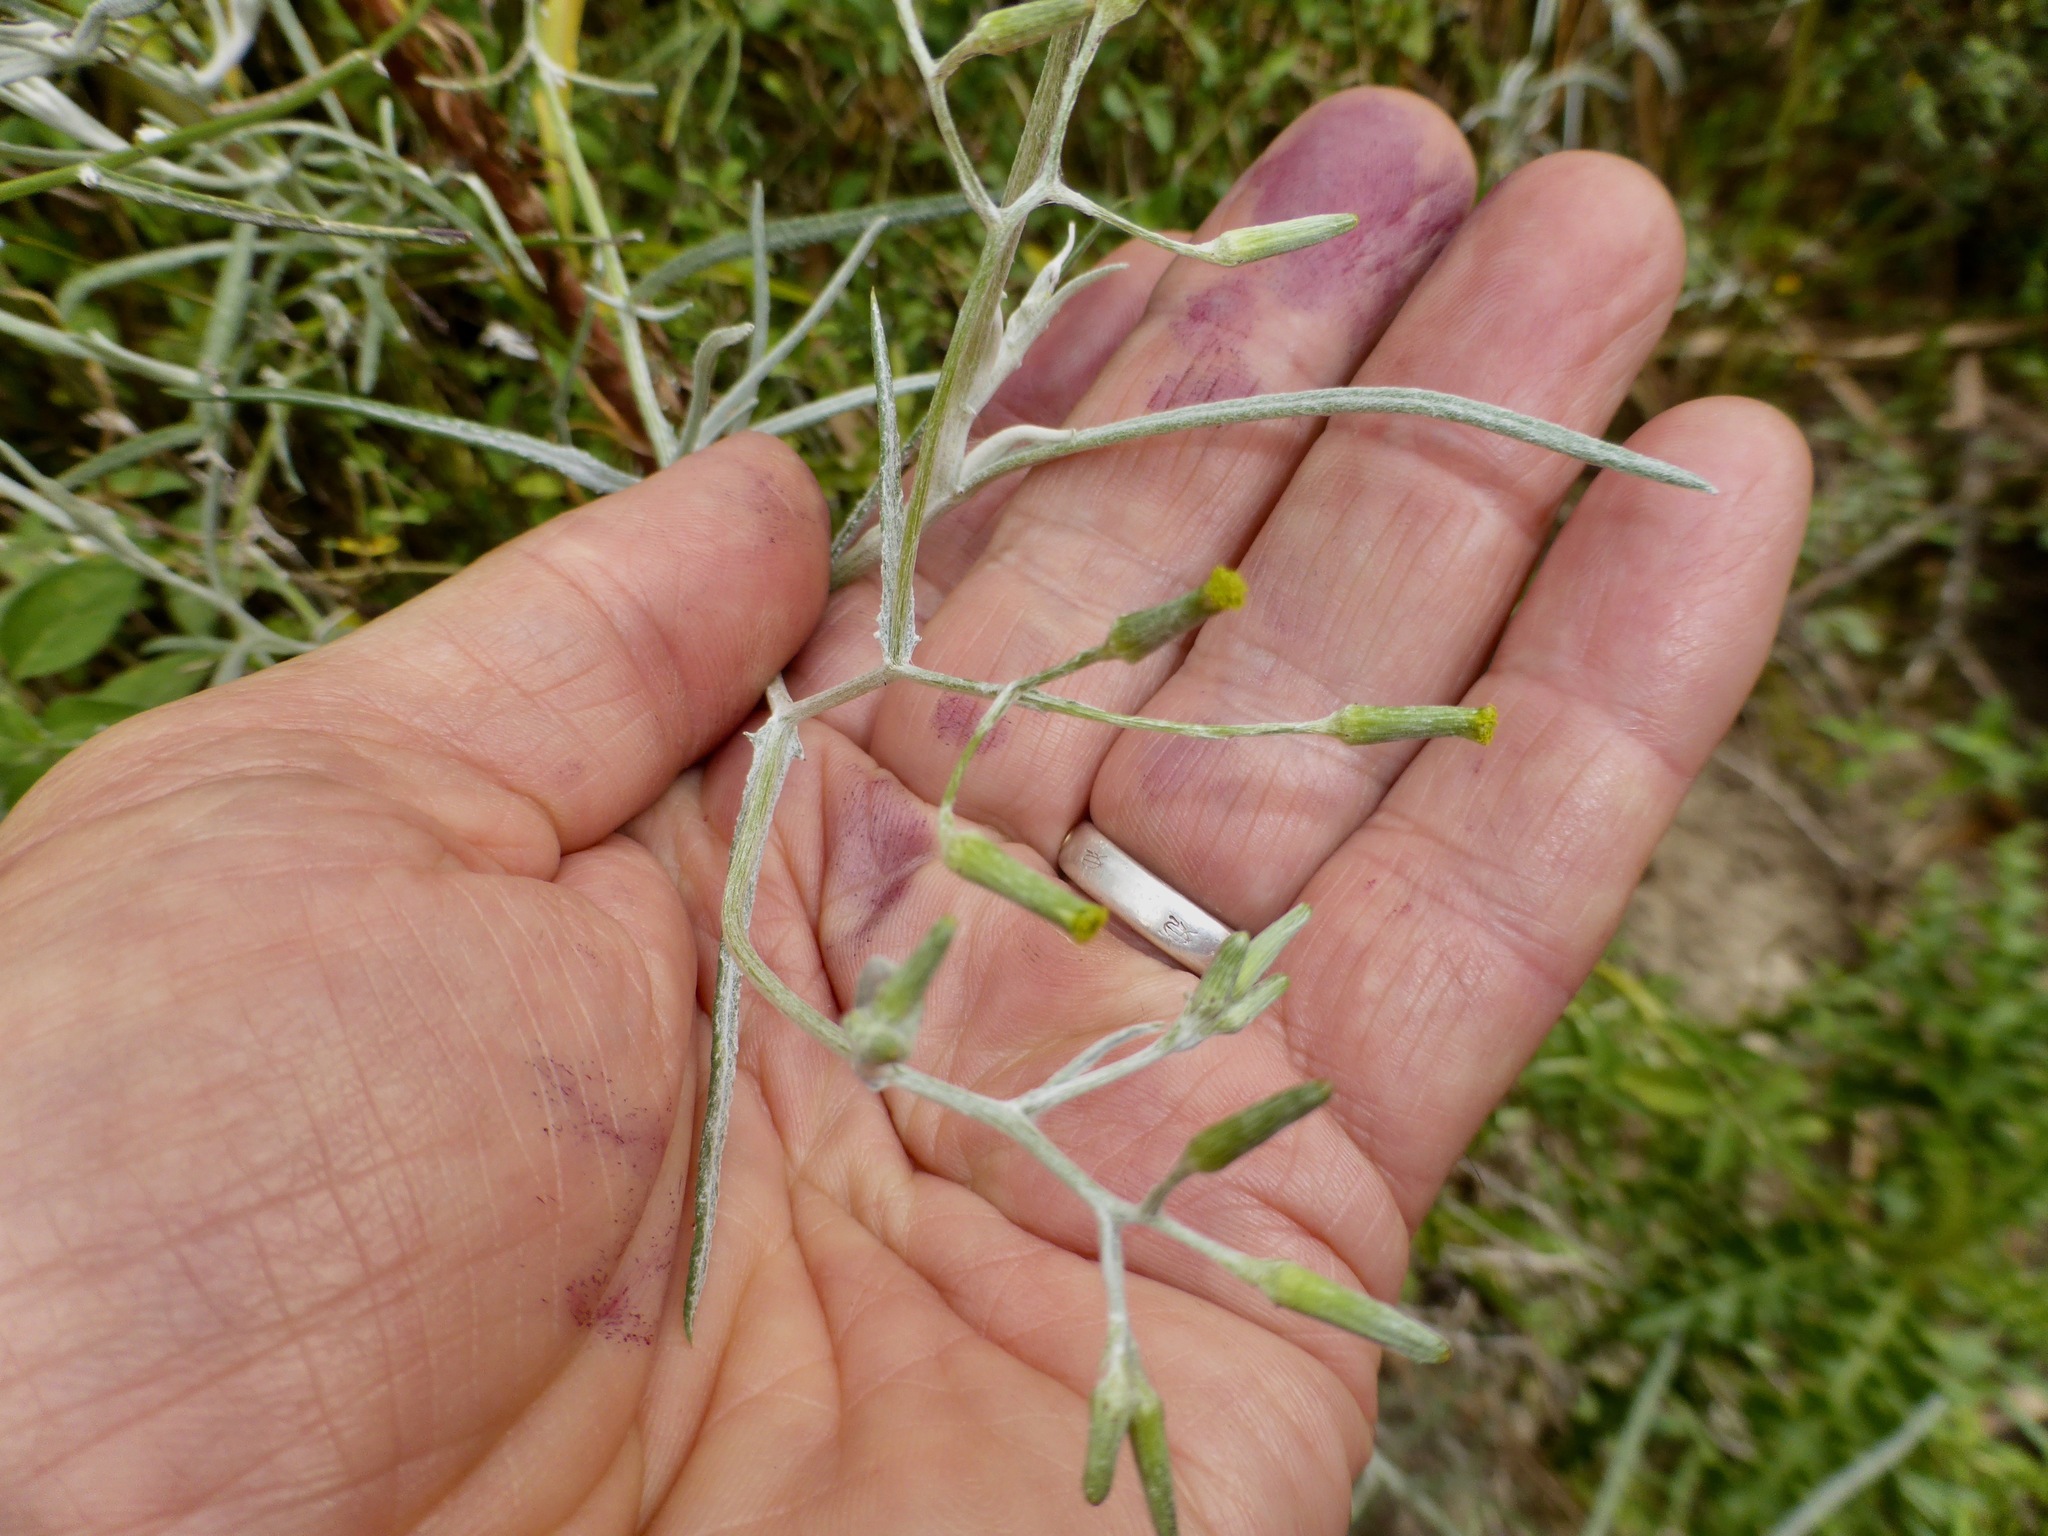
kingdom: Plantae
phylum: Tracheophyta
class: Magnoliopsida
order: Asterales
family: Asteraceae
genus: Senecio
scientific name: Senecio quadridentatus
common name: Cotton fireweed
